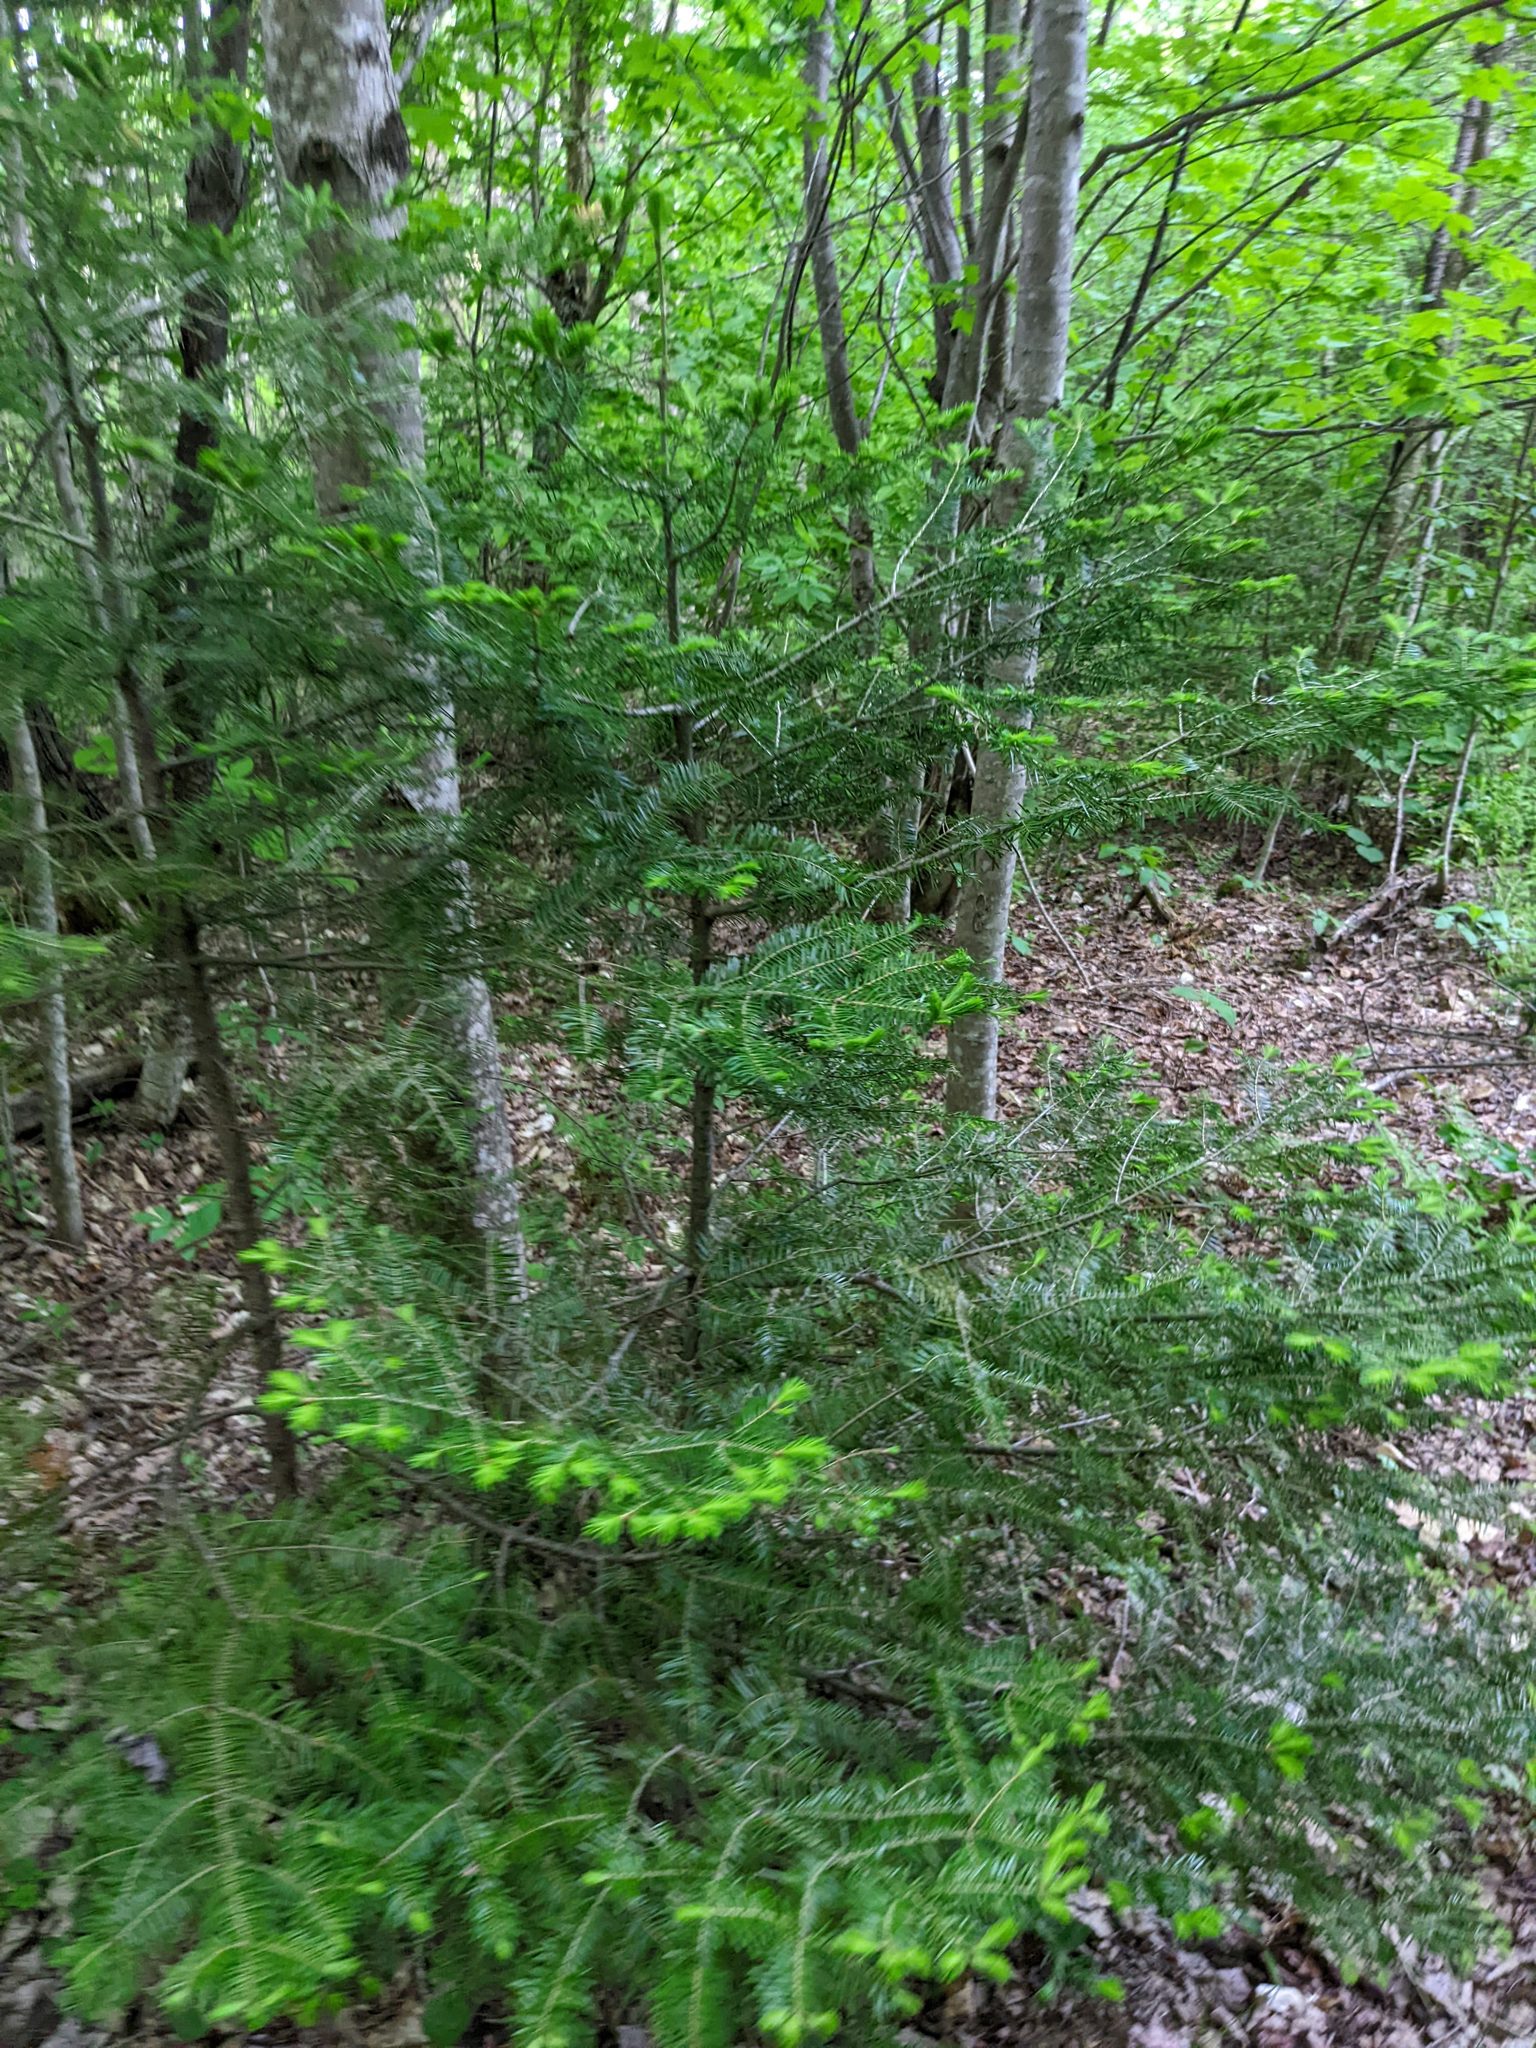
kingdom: Plantae
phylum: Tracheophyta
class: Pinopsida
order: Pinales
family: Pinaceae
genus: Abies
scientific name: Abies balsamea
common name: Balsam fir
